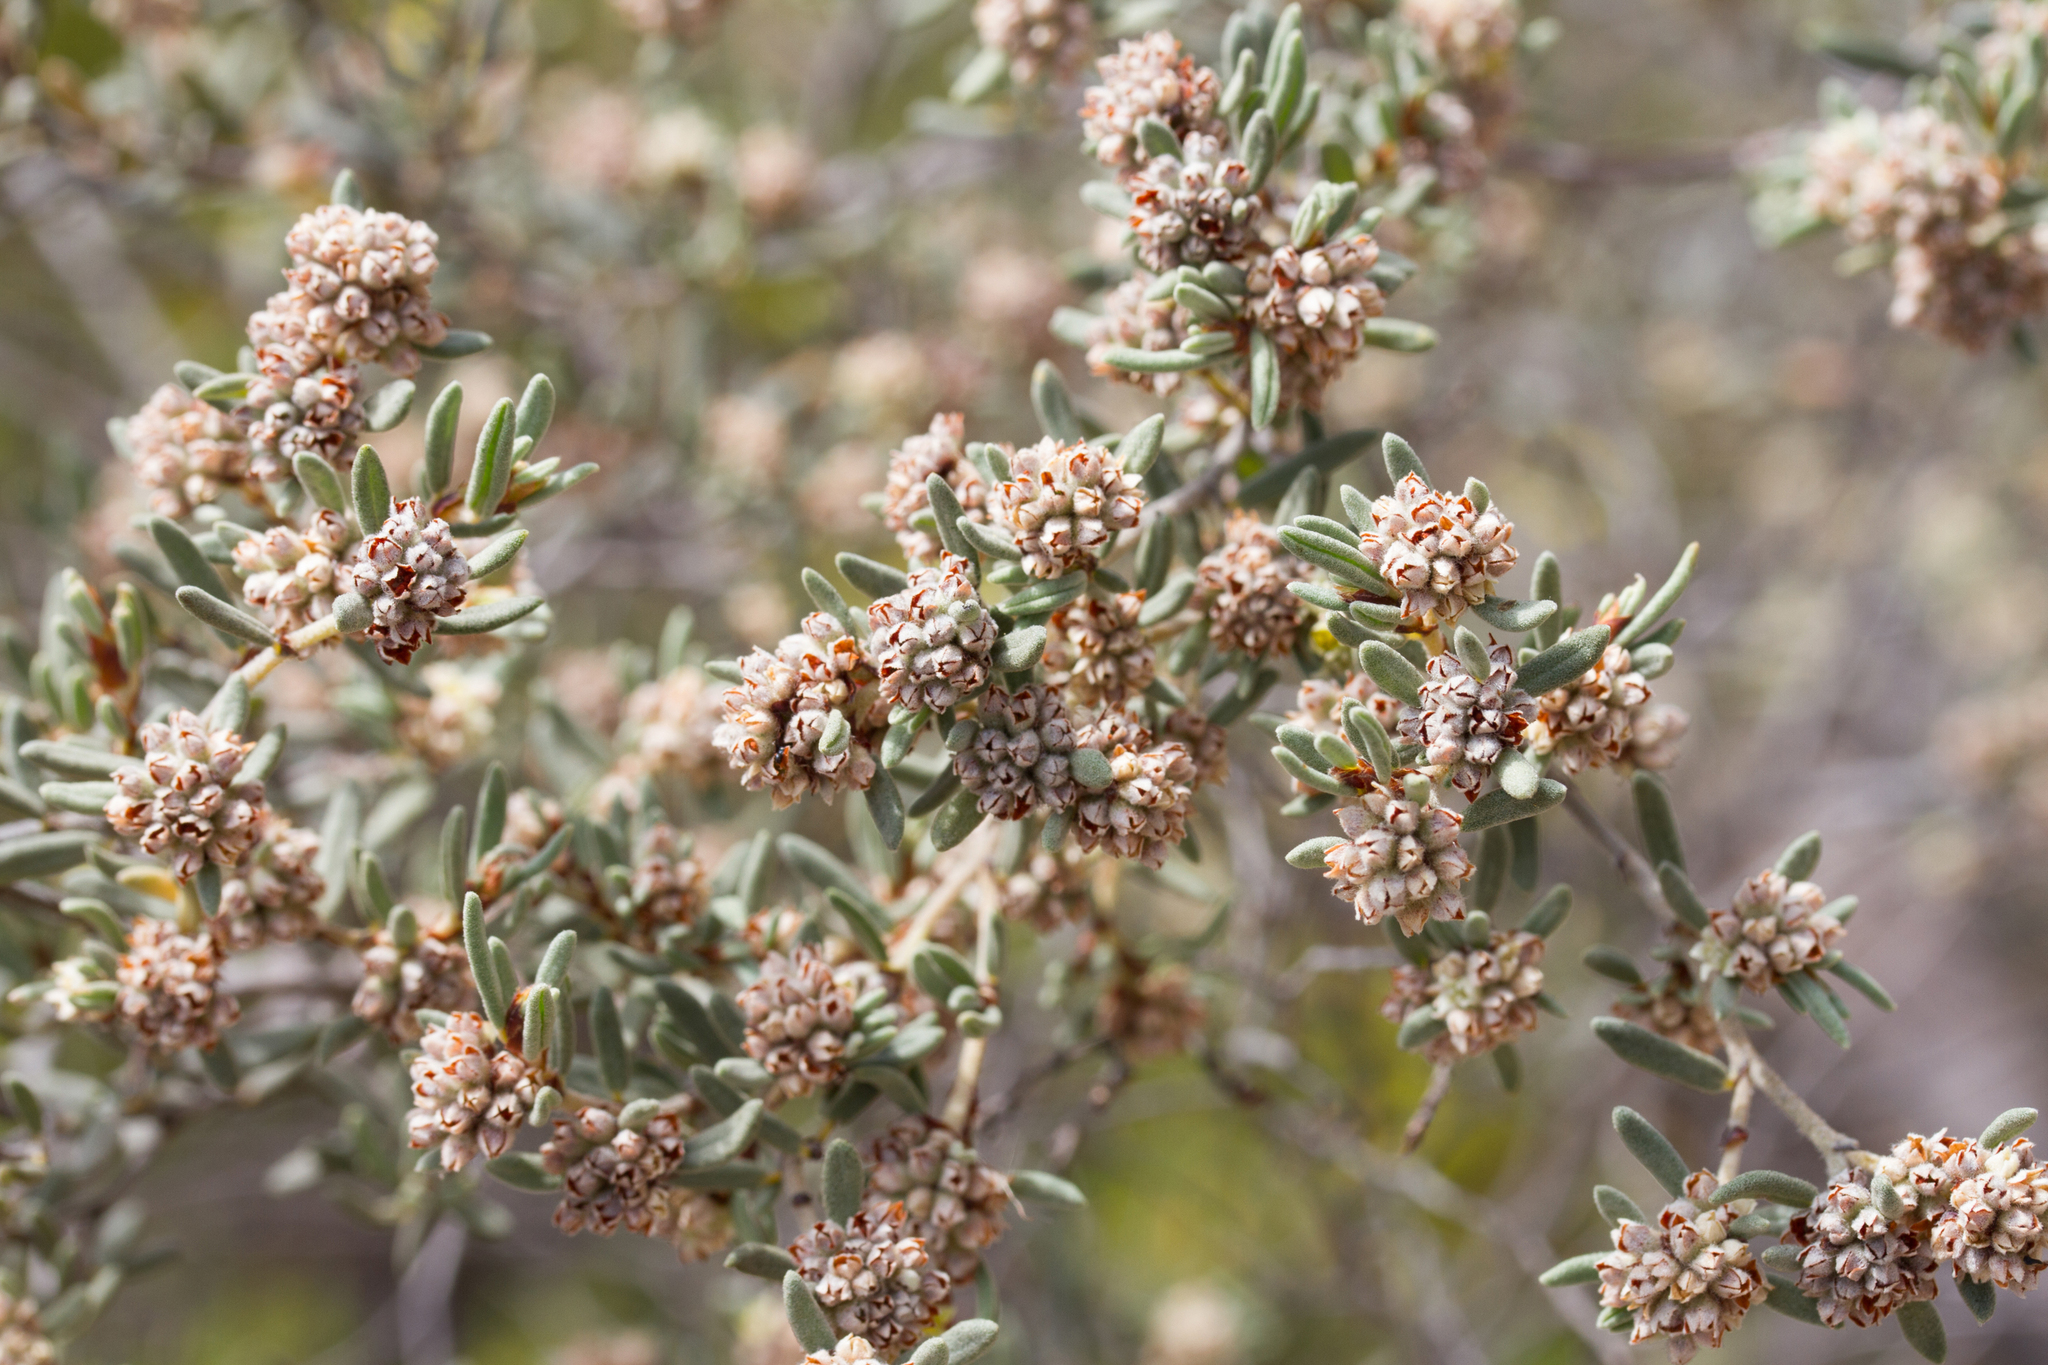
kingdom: Plantae
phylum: Tracheophyta
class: Magnoliopsida
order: Rosales
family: Rhamnaceae
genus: Spyridium
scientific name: Spyridium subochreatum
